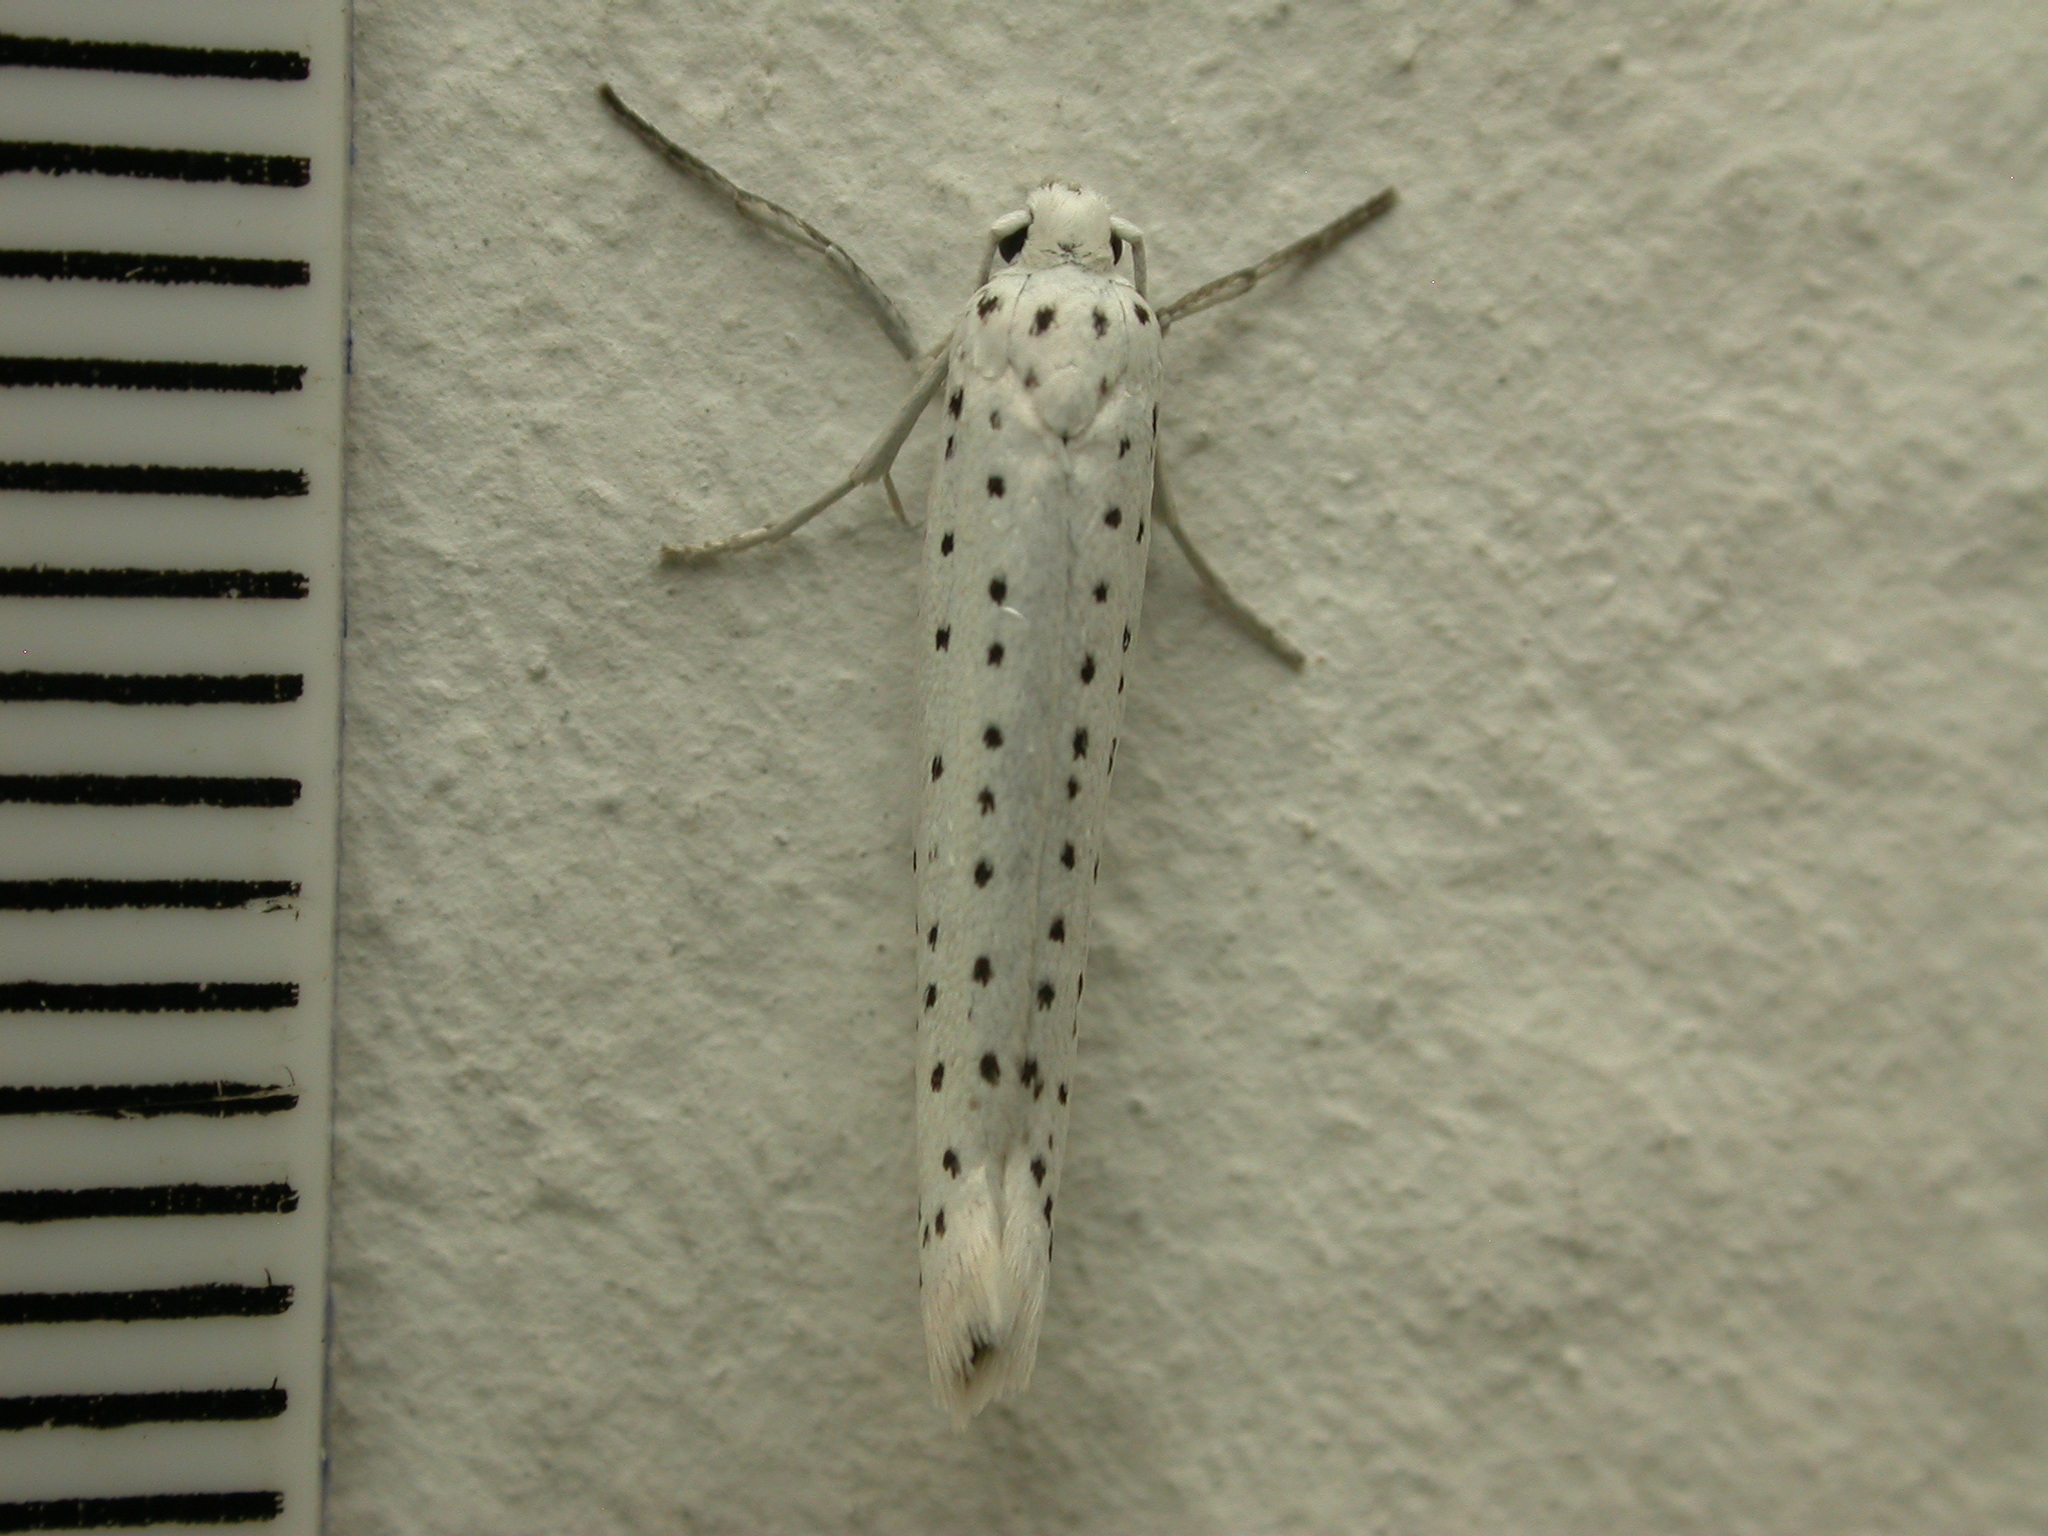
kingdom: Animalia
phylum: Arthropoda
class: Insecta
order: Lepidoptera
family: Yponomeutidae
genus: Yponomeuta
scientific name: Yponomeuta evonymella
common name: Bird-cherry ermine
